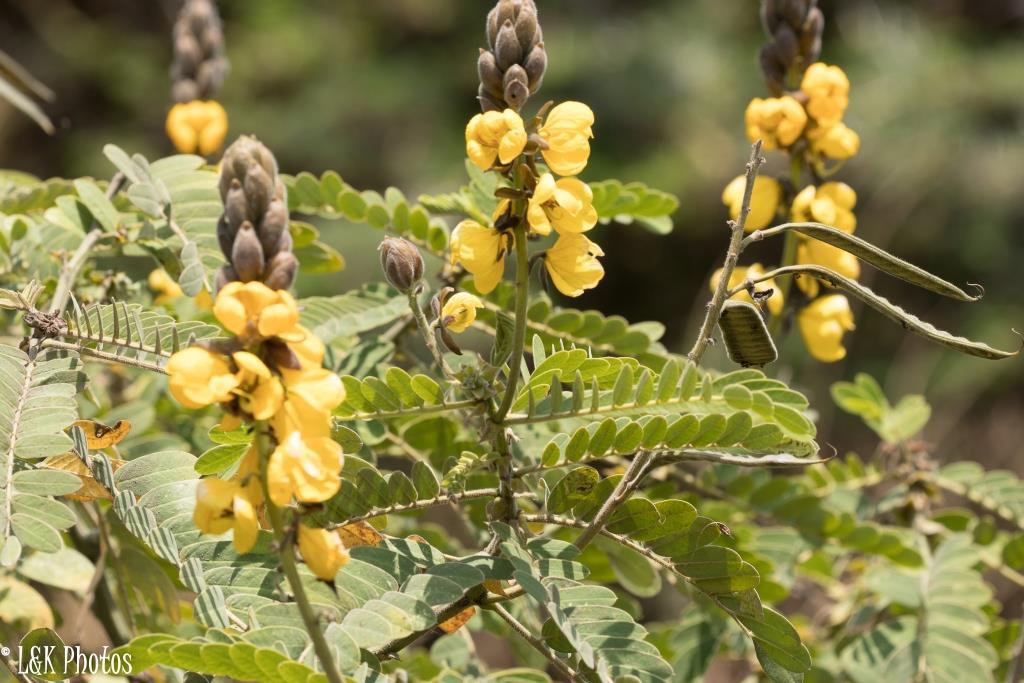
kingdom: Plantae
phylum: Tracheophyta
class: Magnoliopsida
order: Fabales
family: Fabaceae
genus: Senna
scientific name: Senna didymobotrya
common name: African senna
